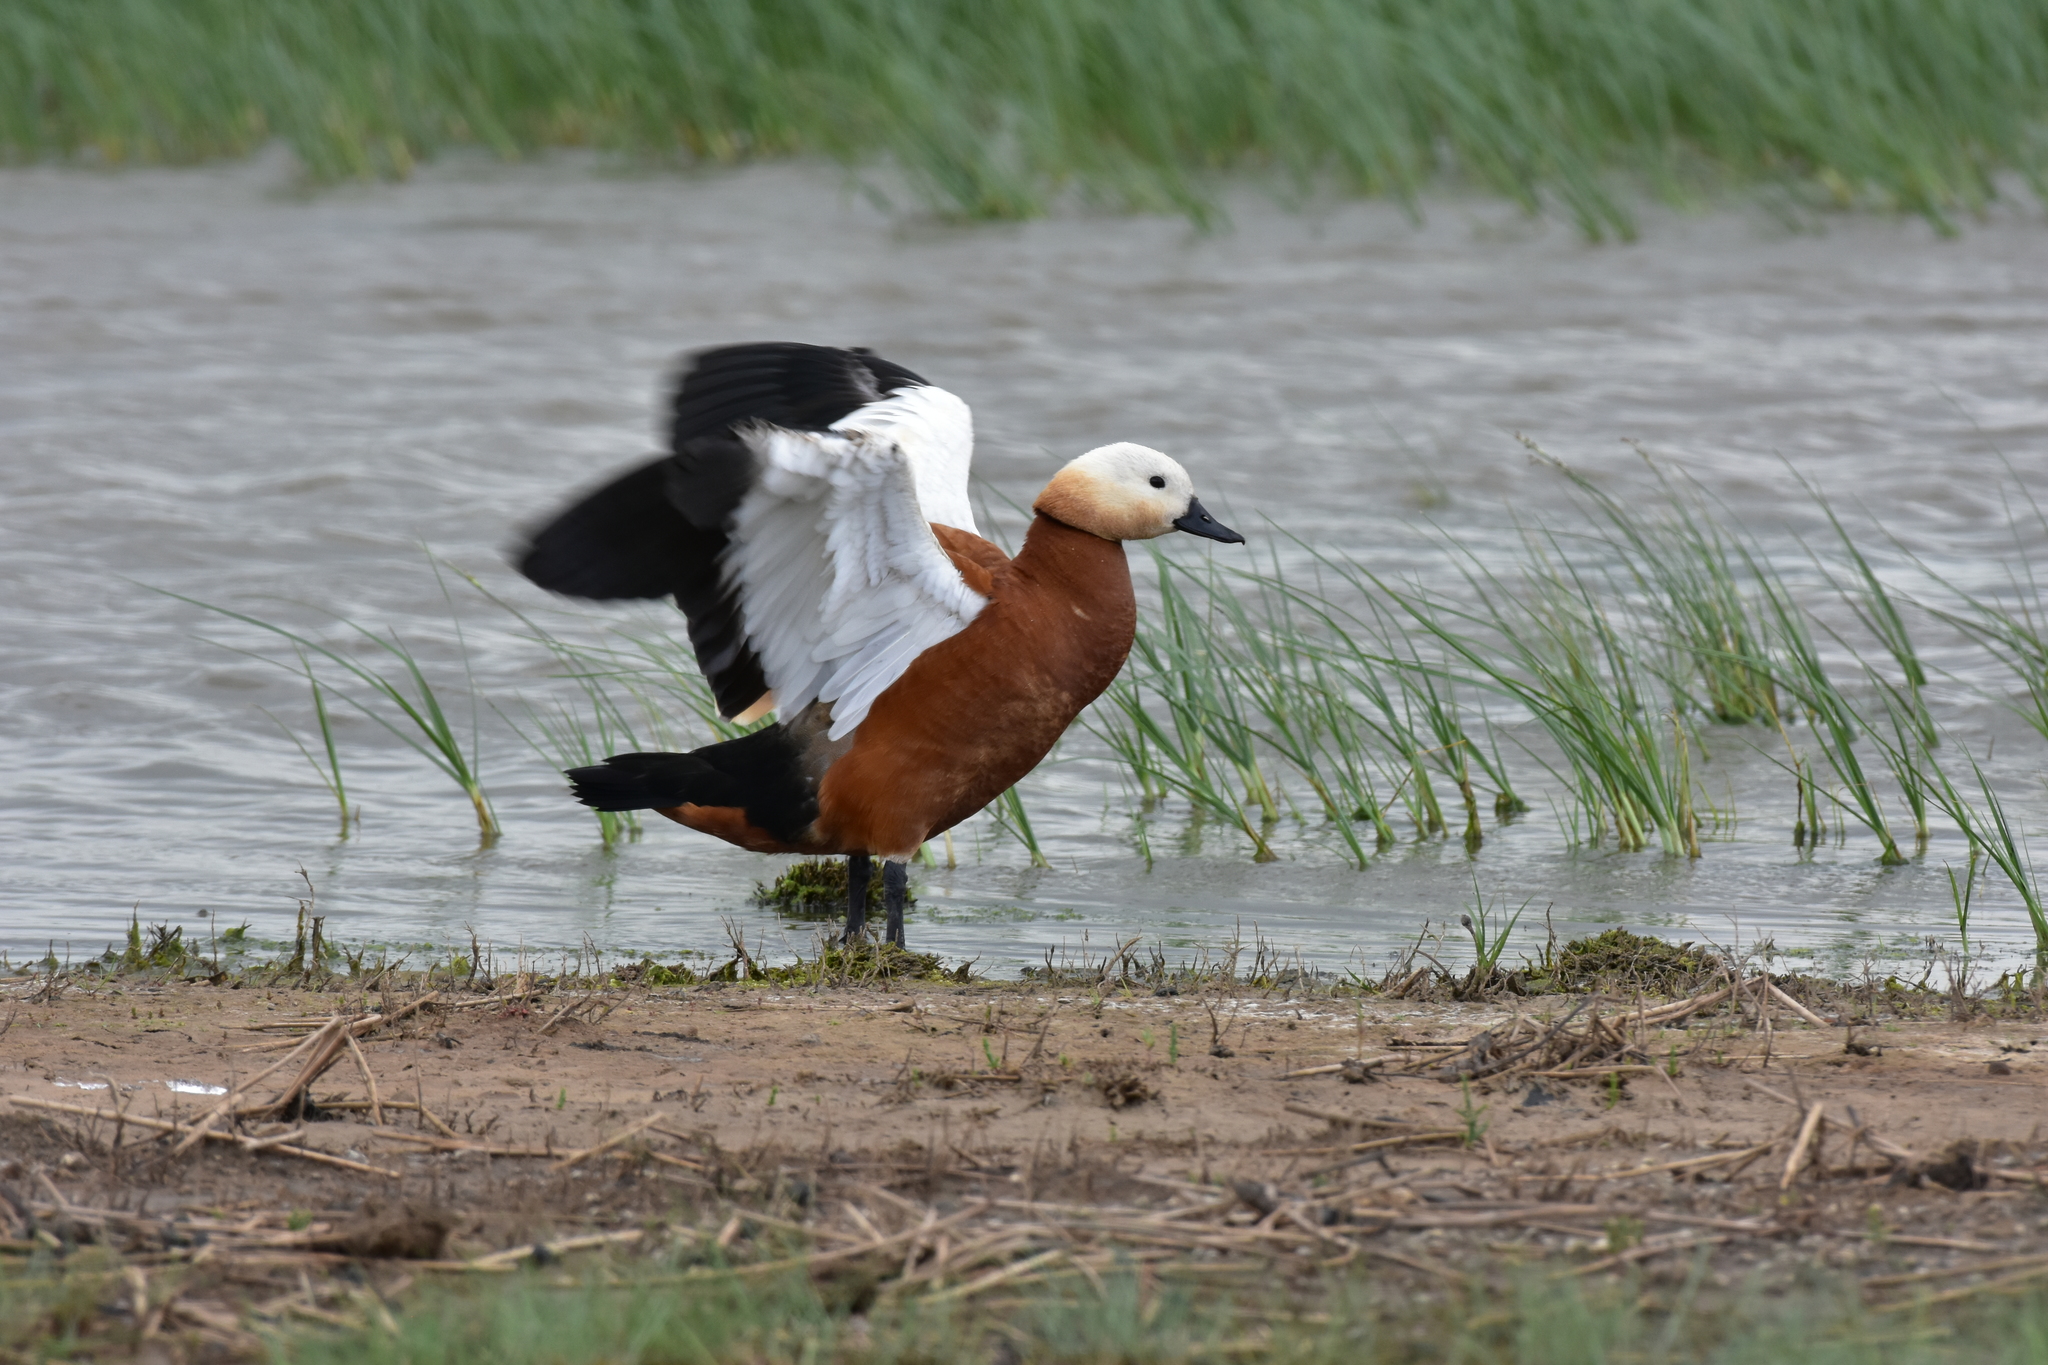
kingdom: Animalia
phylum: Chordata
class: Aves
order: Anseriformes
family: Anatidae
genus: Tadorna
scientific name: Tadorna ferruginea
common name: Ruddy shelduck
